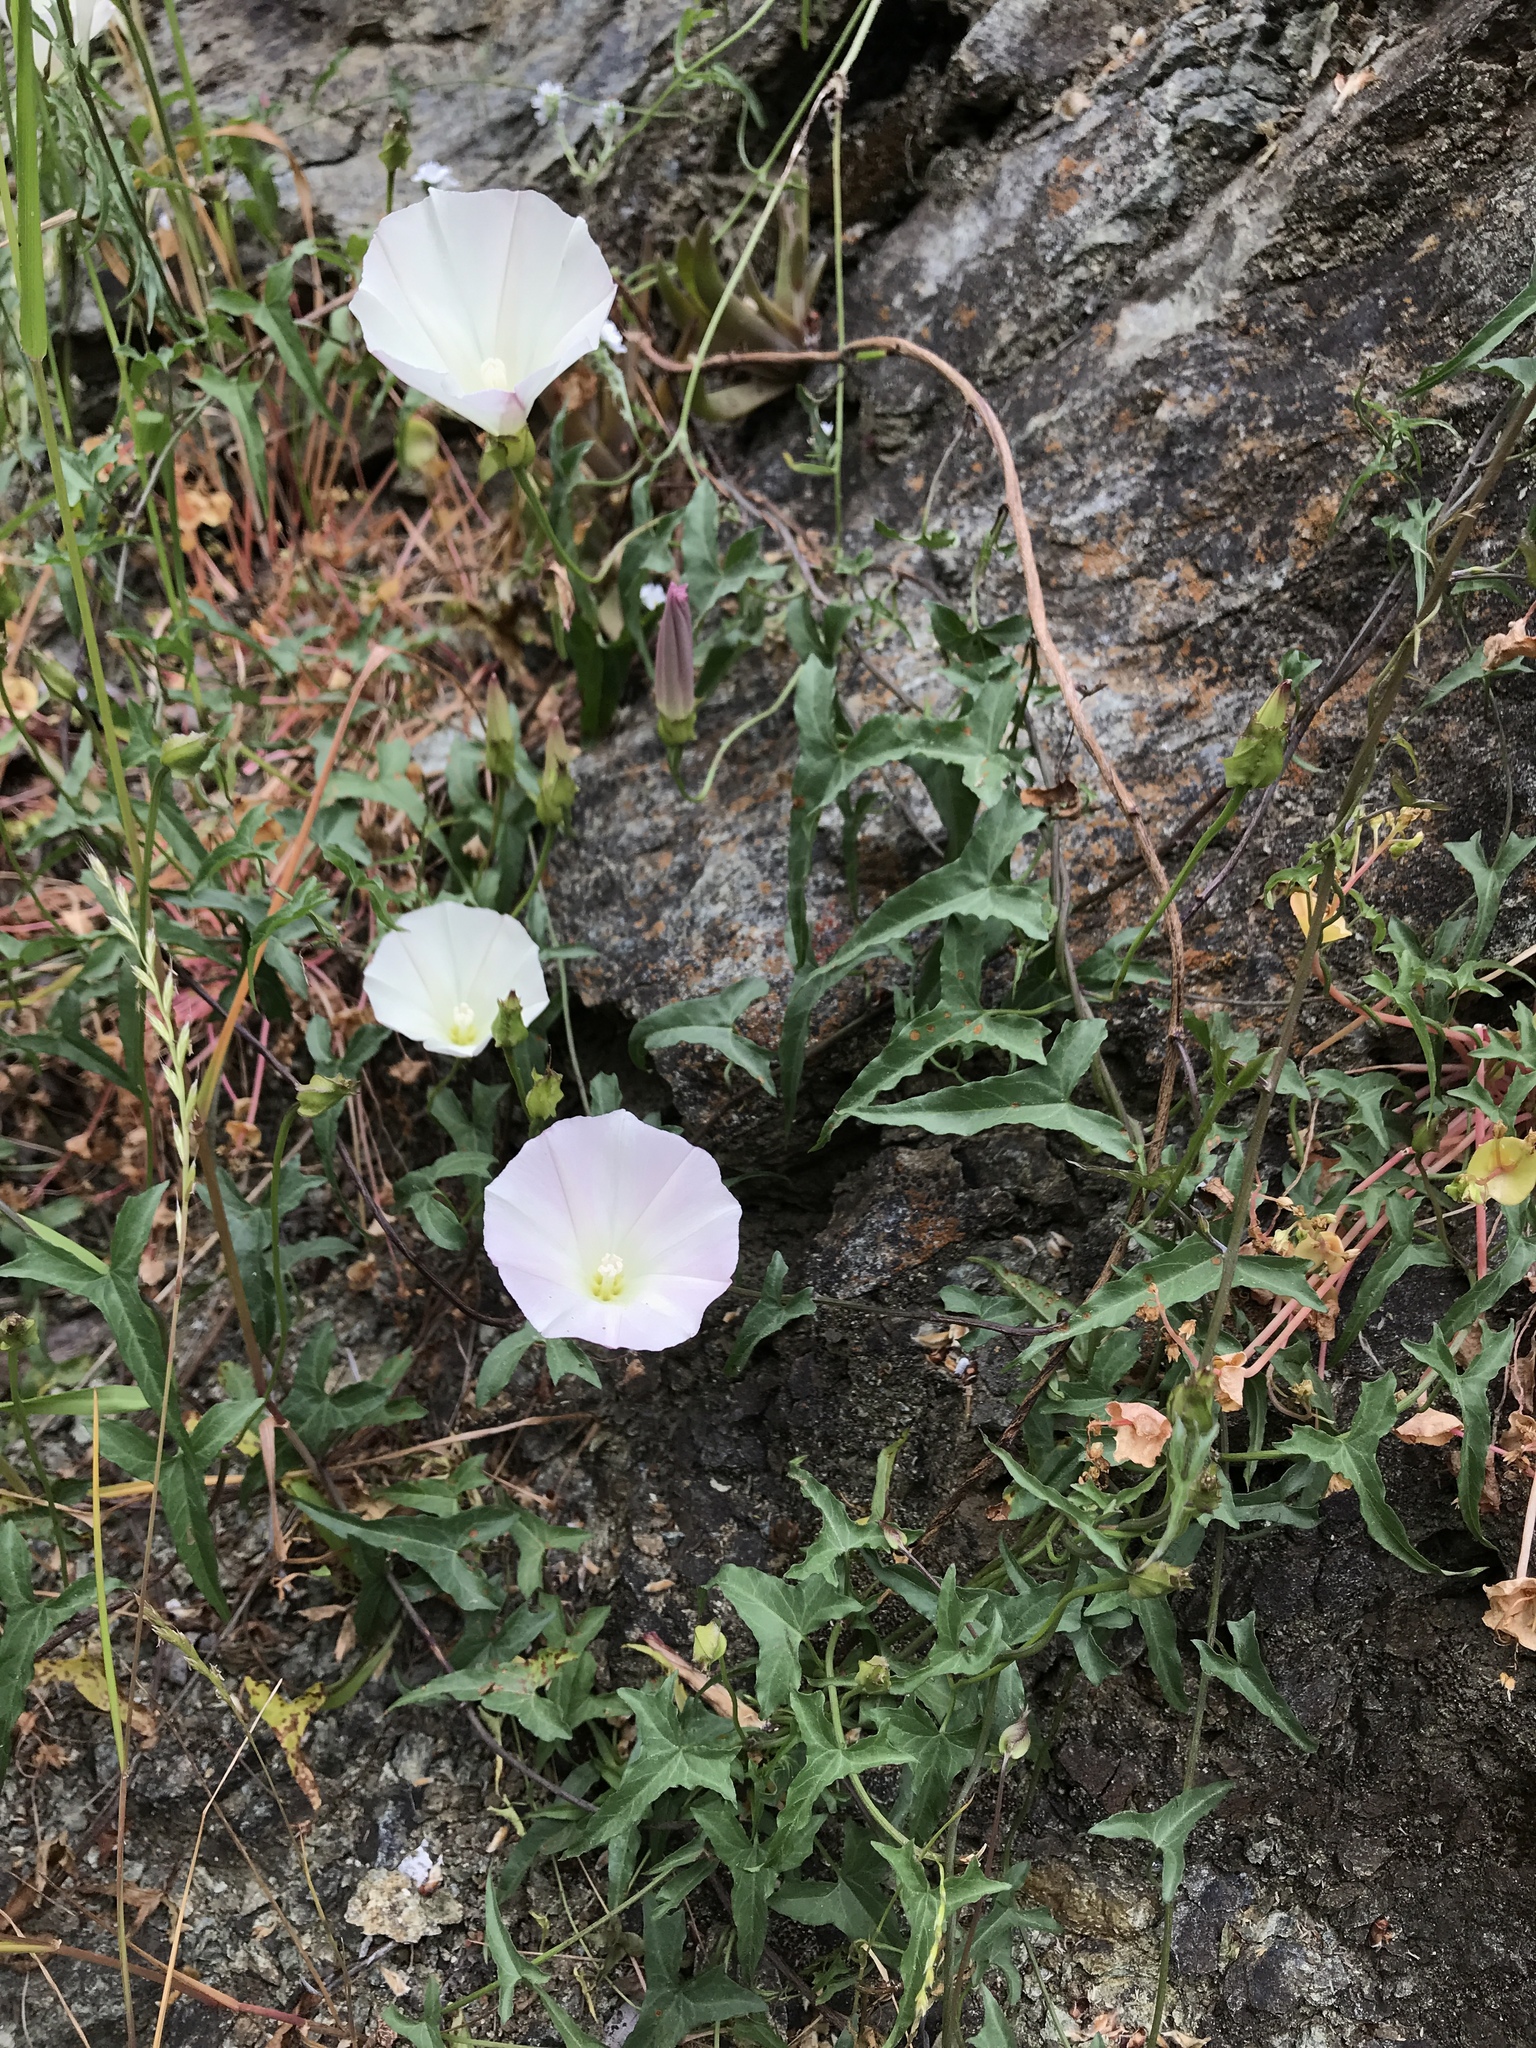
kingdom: Plantae
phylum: Tracheophyta
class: Magnoliopsida
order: Solanales
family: Convolvulaceae
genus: Calystegia
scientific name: Calystegia macrostegia
